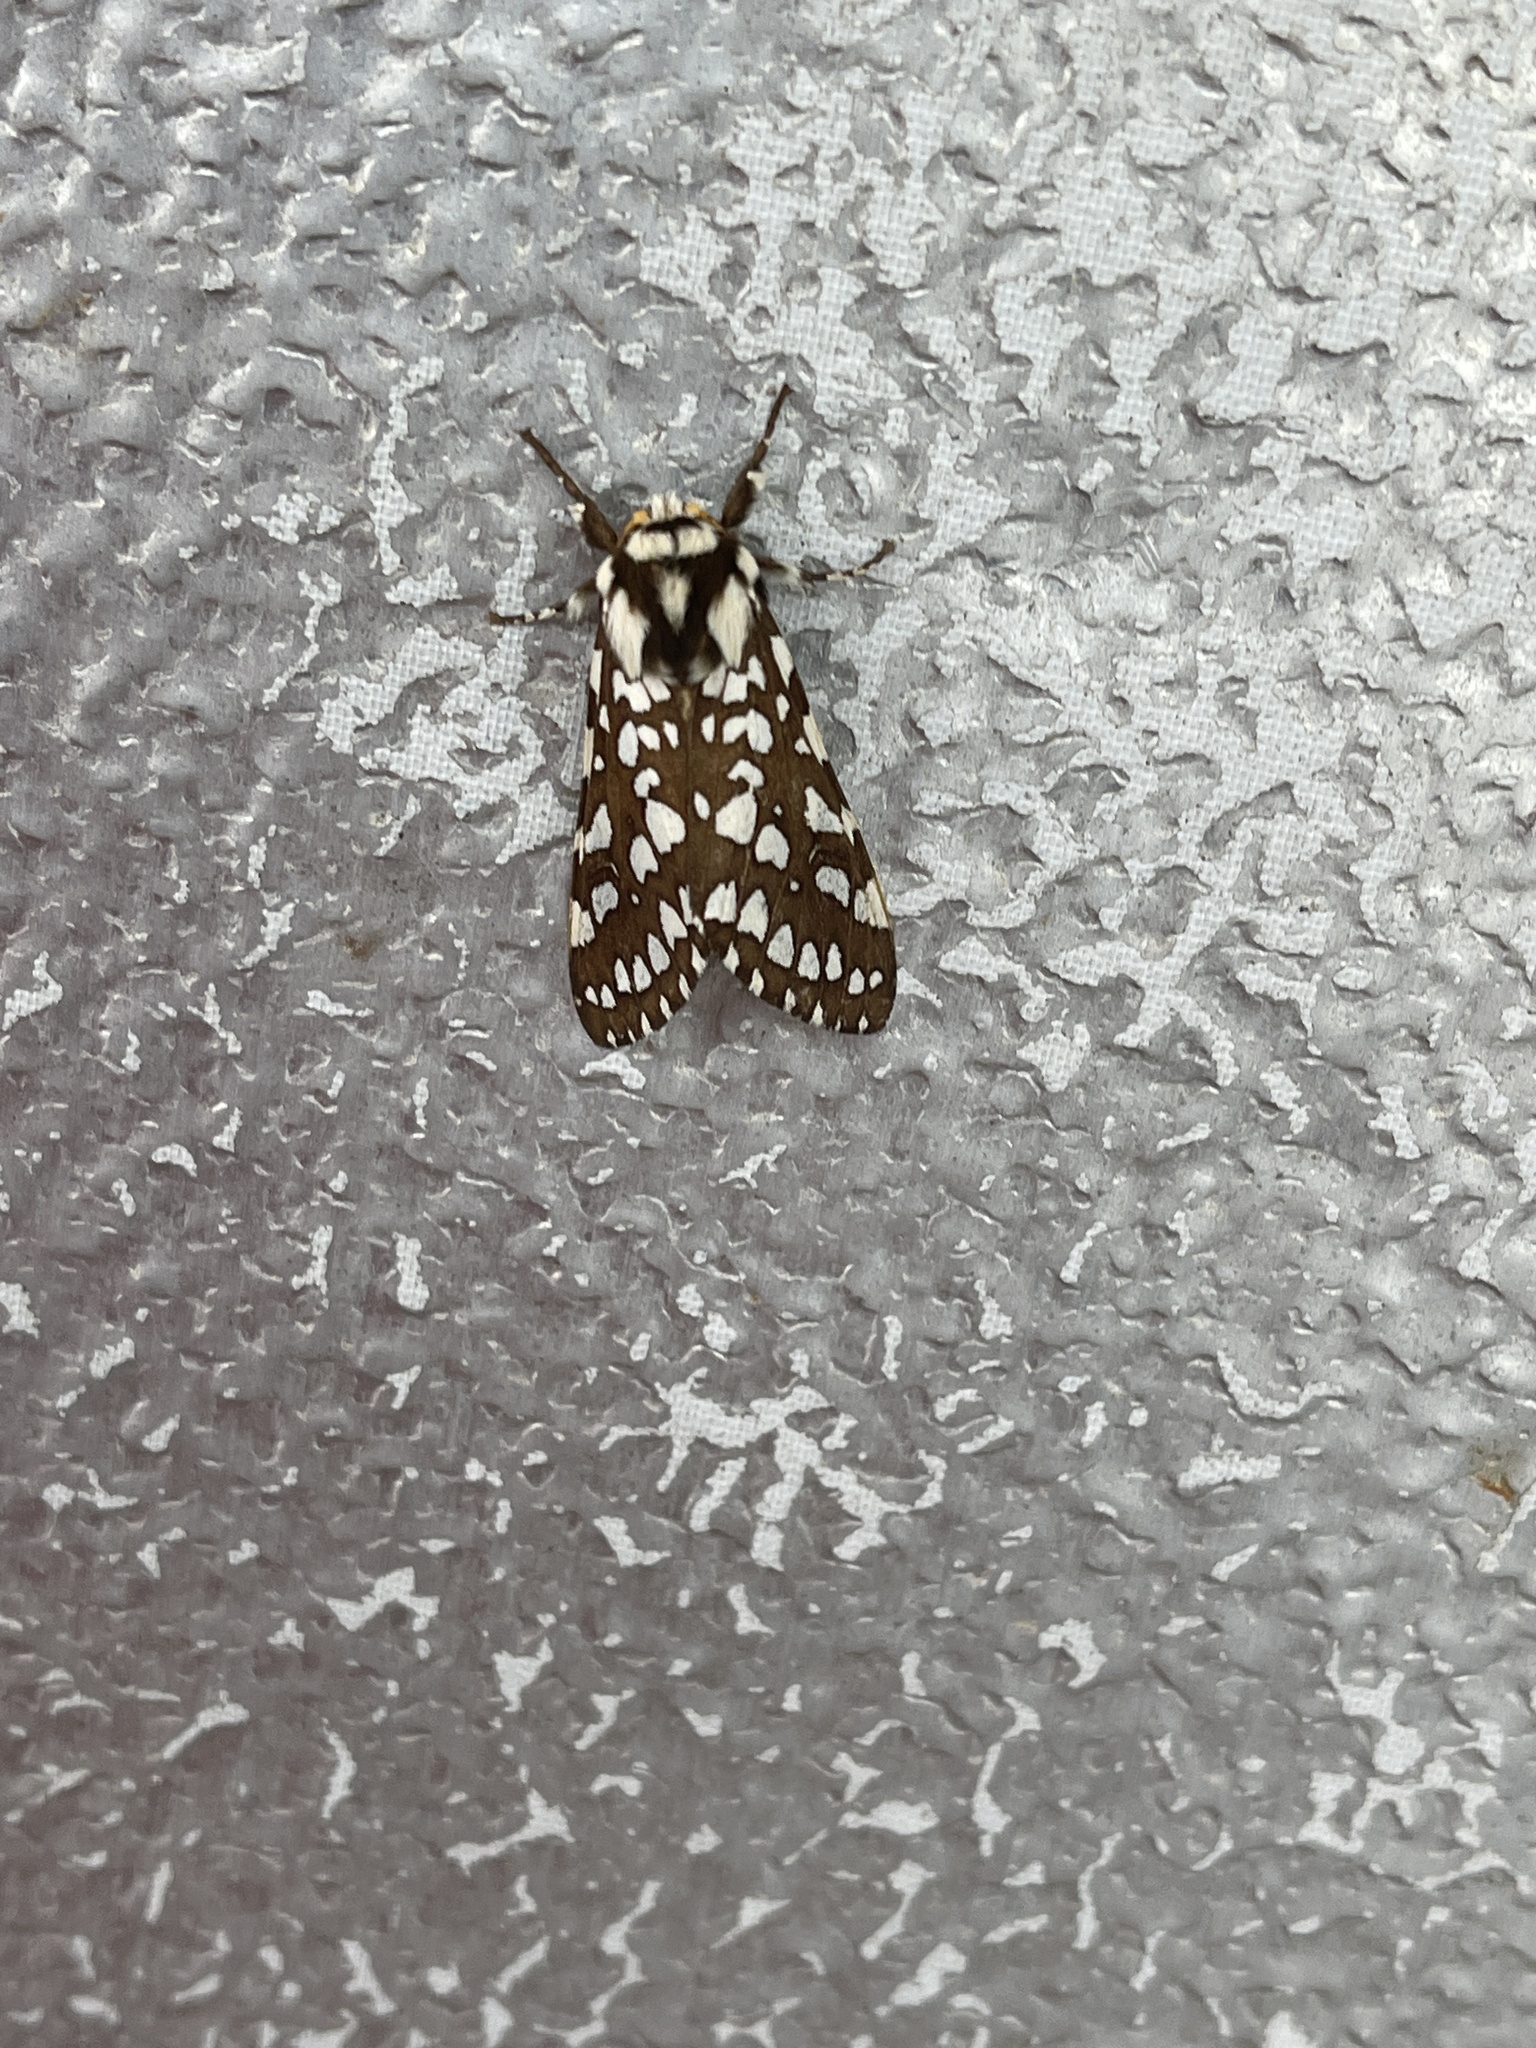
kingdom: Animalia
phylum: Arthropoda
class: Insecta
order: Lepidoptera
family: Erebidae
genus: Lophocampa
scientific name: Lophocampa ingens
